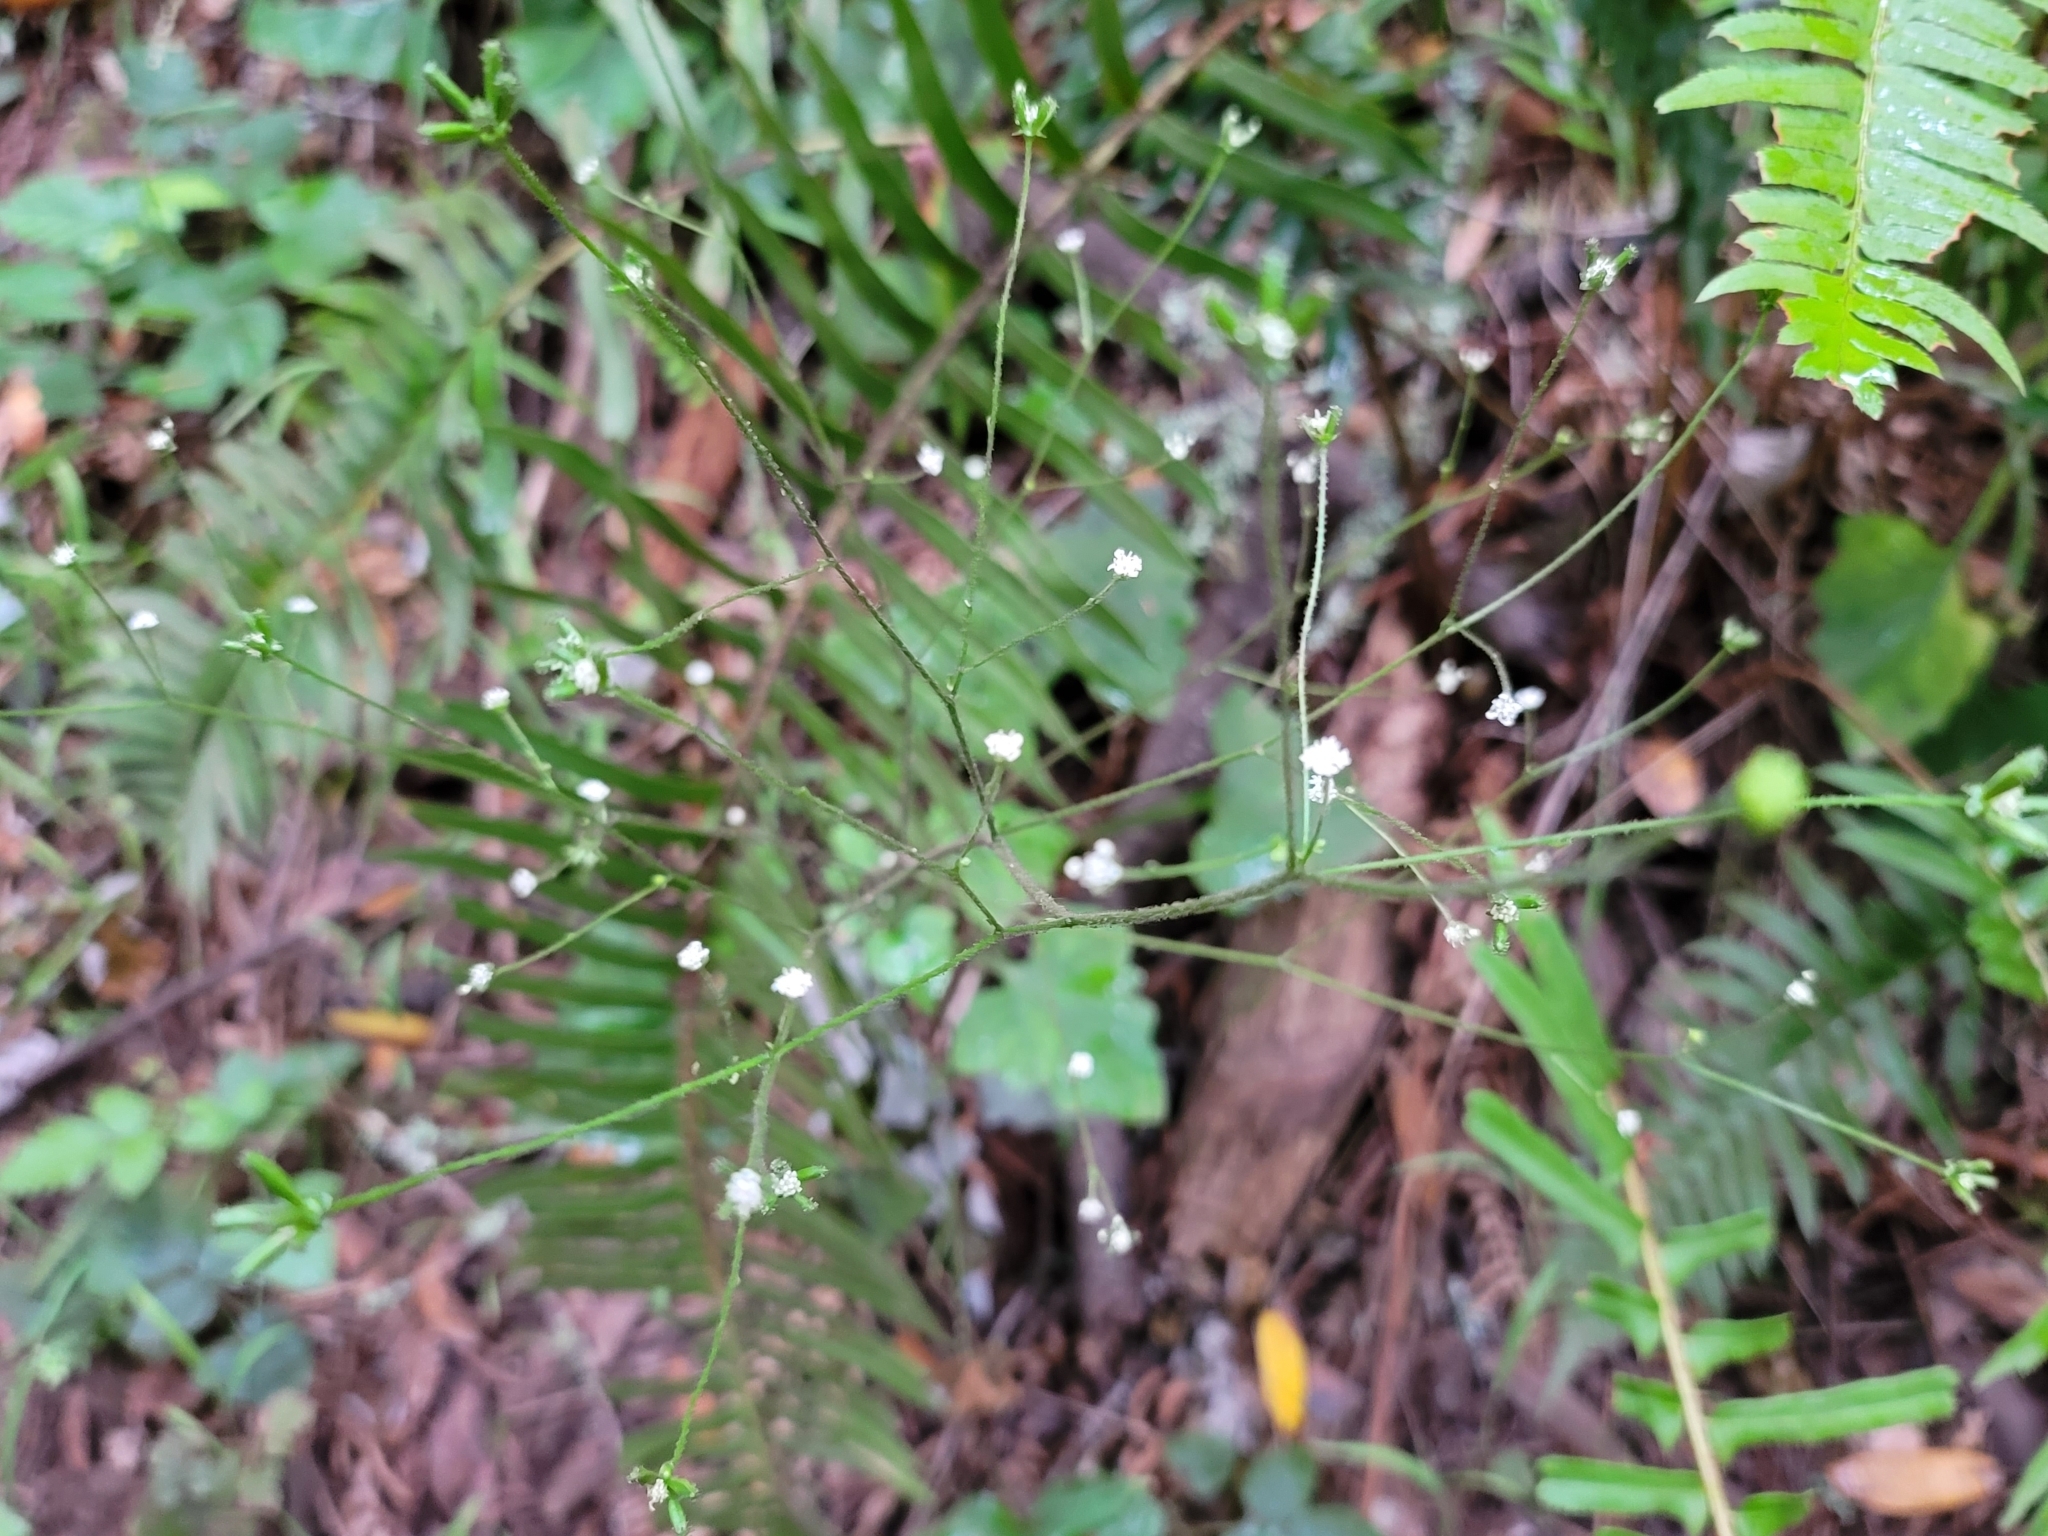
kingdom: Plantae
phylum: Tracheophyta
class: Magnoliopsida
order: Asterales
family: Asteraceae
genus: Adenocaulon
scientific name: Adenocaulon bicolor
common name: Trailplant
